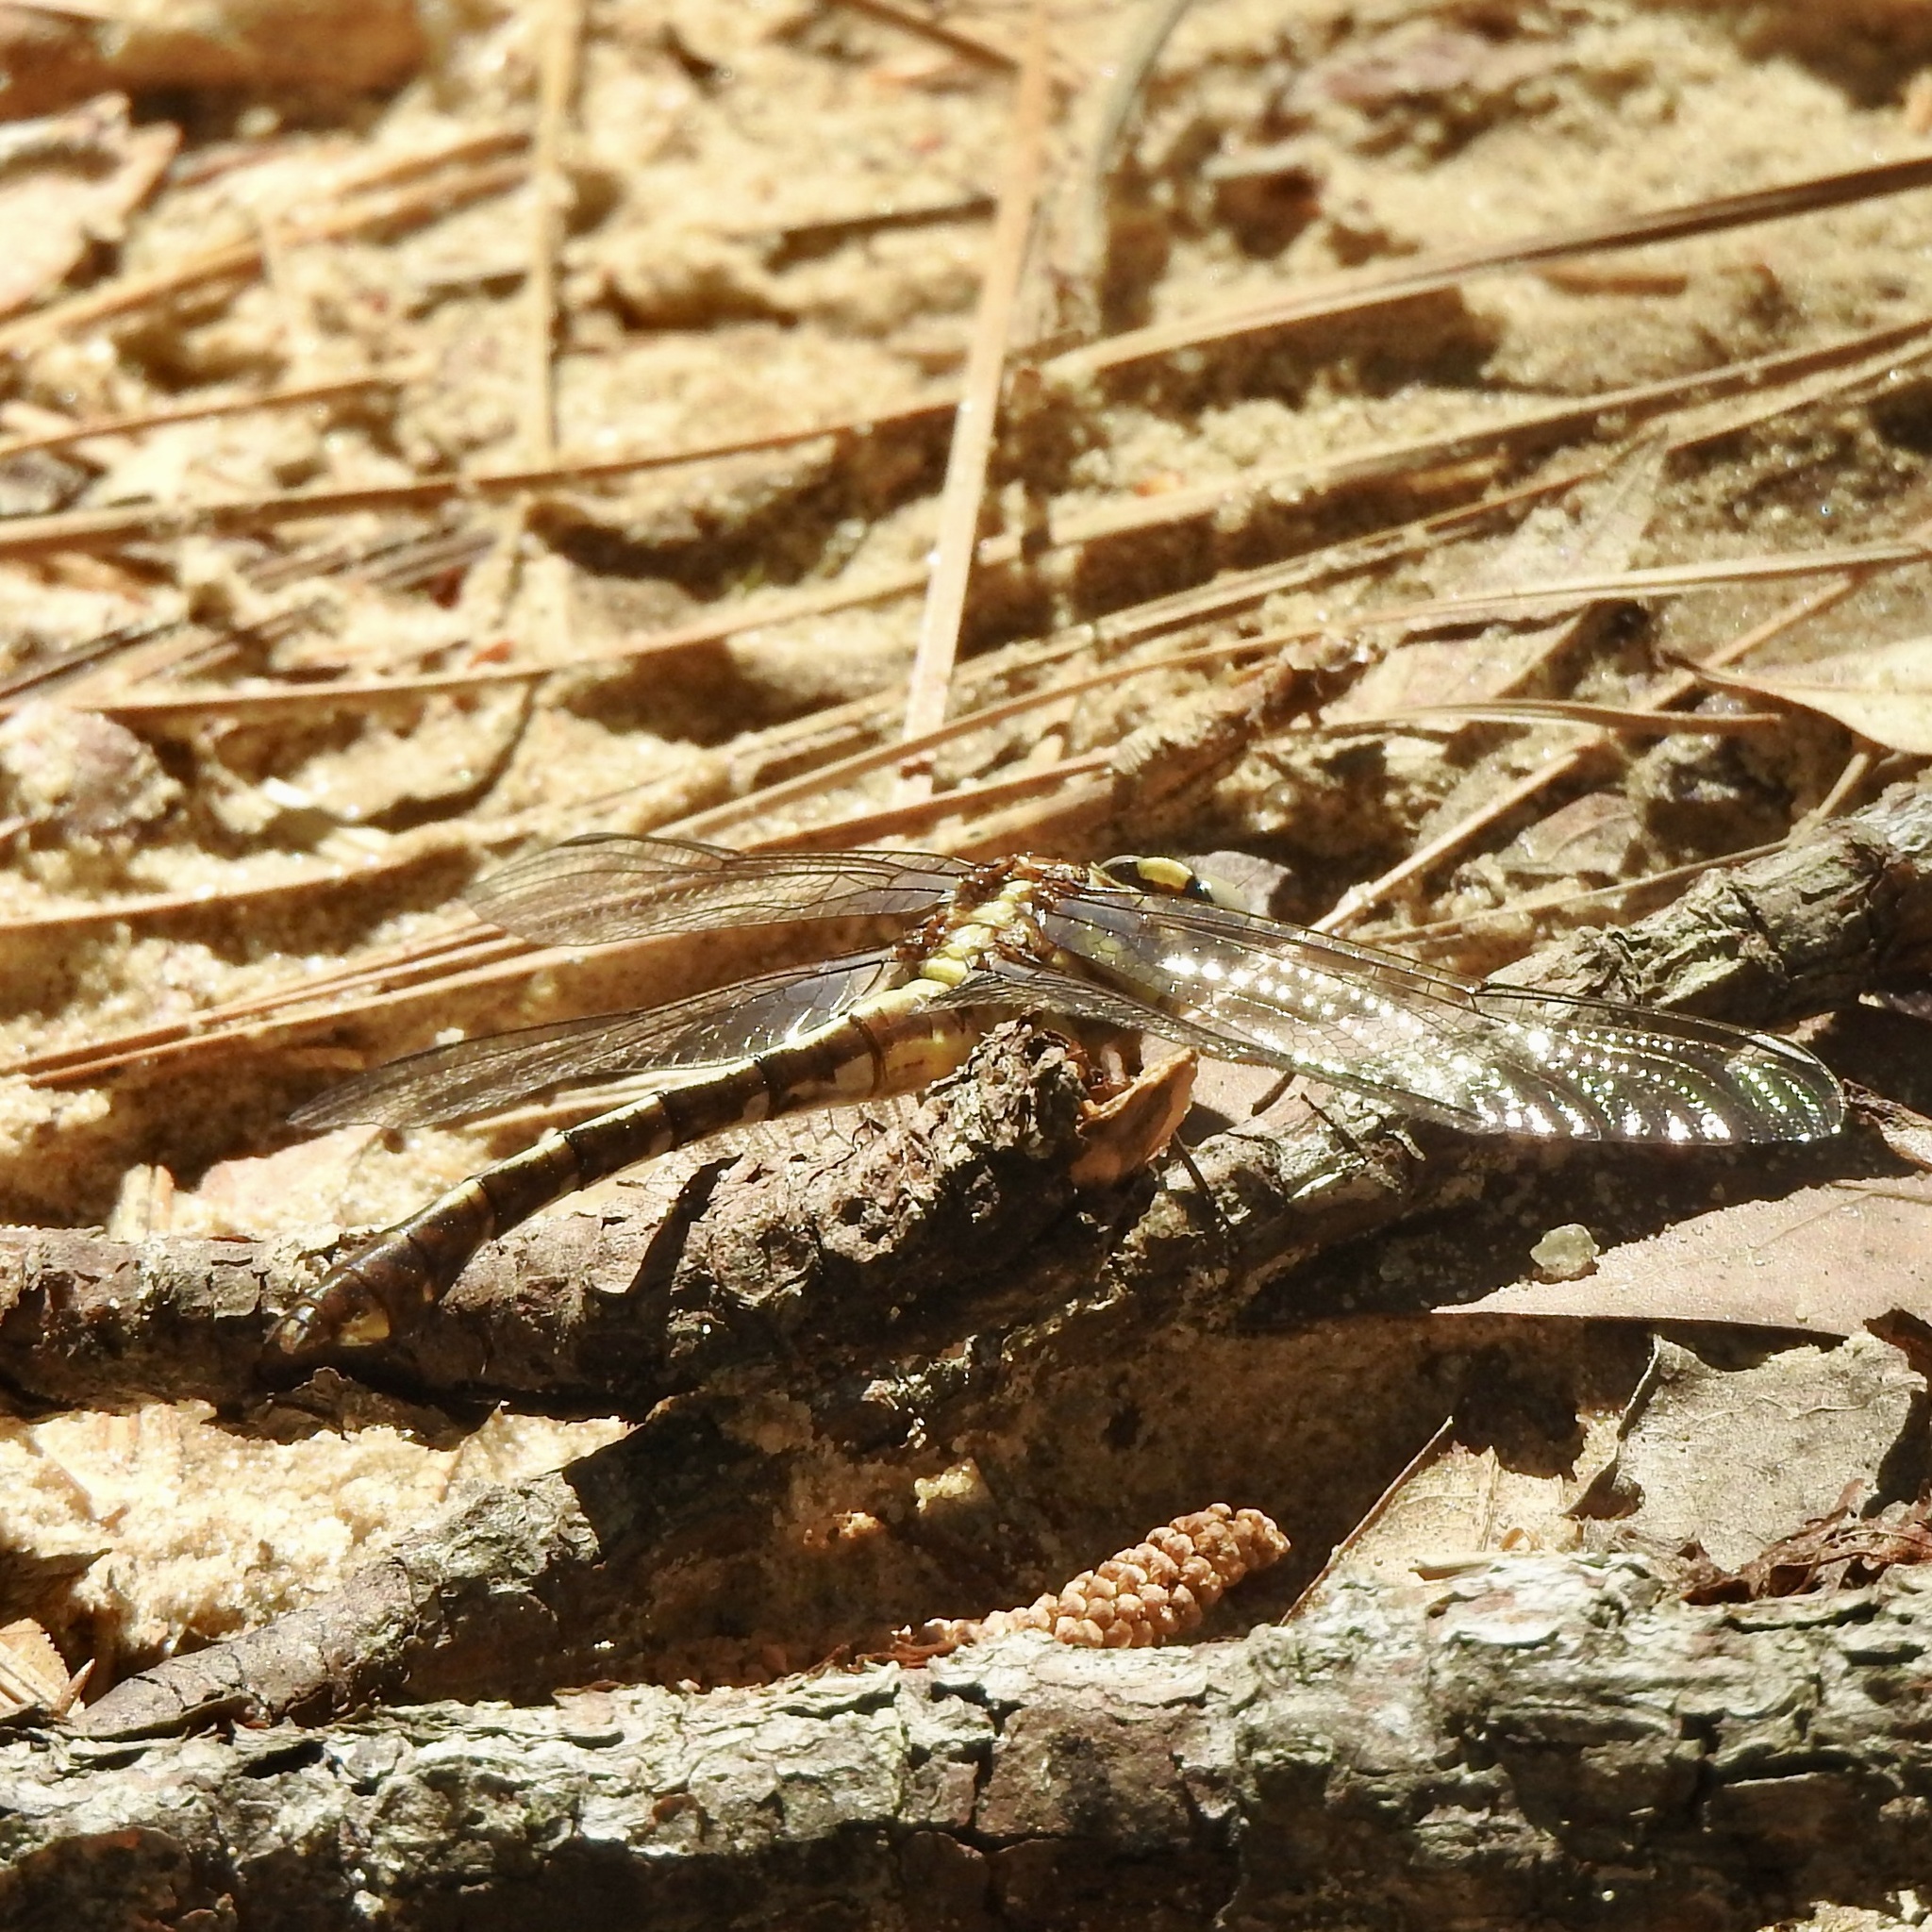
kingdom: Animalia
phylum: Arthropoda
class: Insecta
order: Odonata
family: Gomphidae
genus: Gomphurus
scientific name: Gomphurus hybridus
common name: Cocoa clubtail
